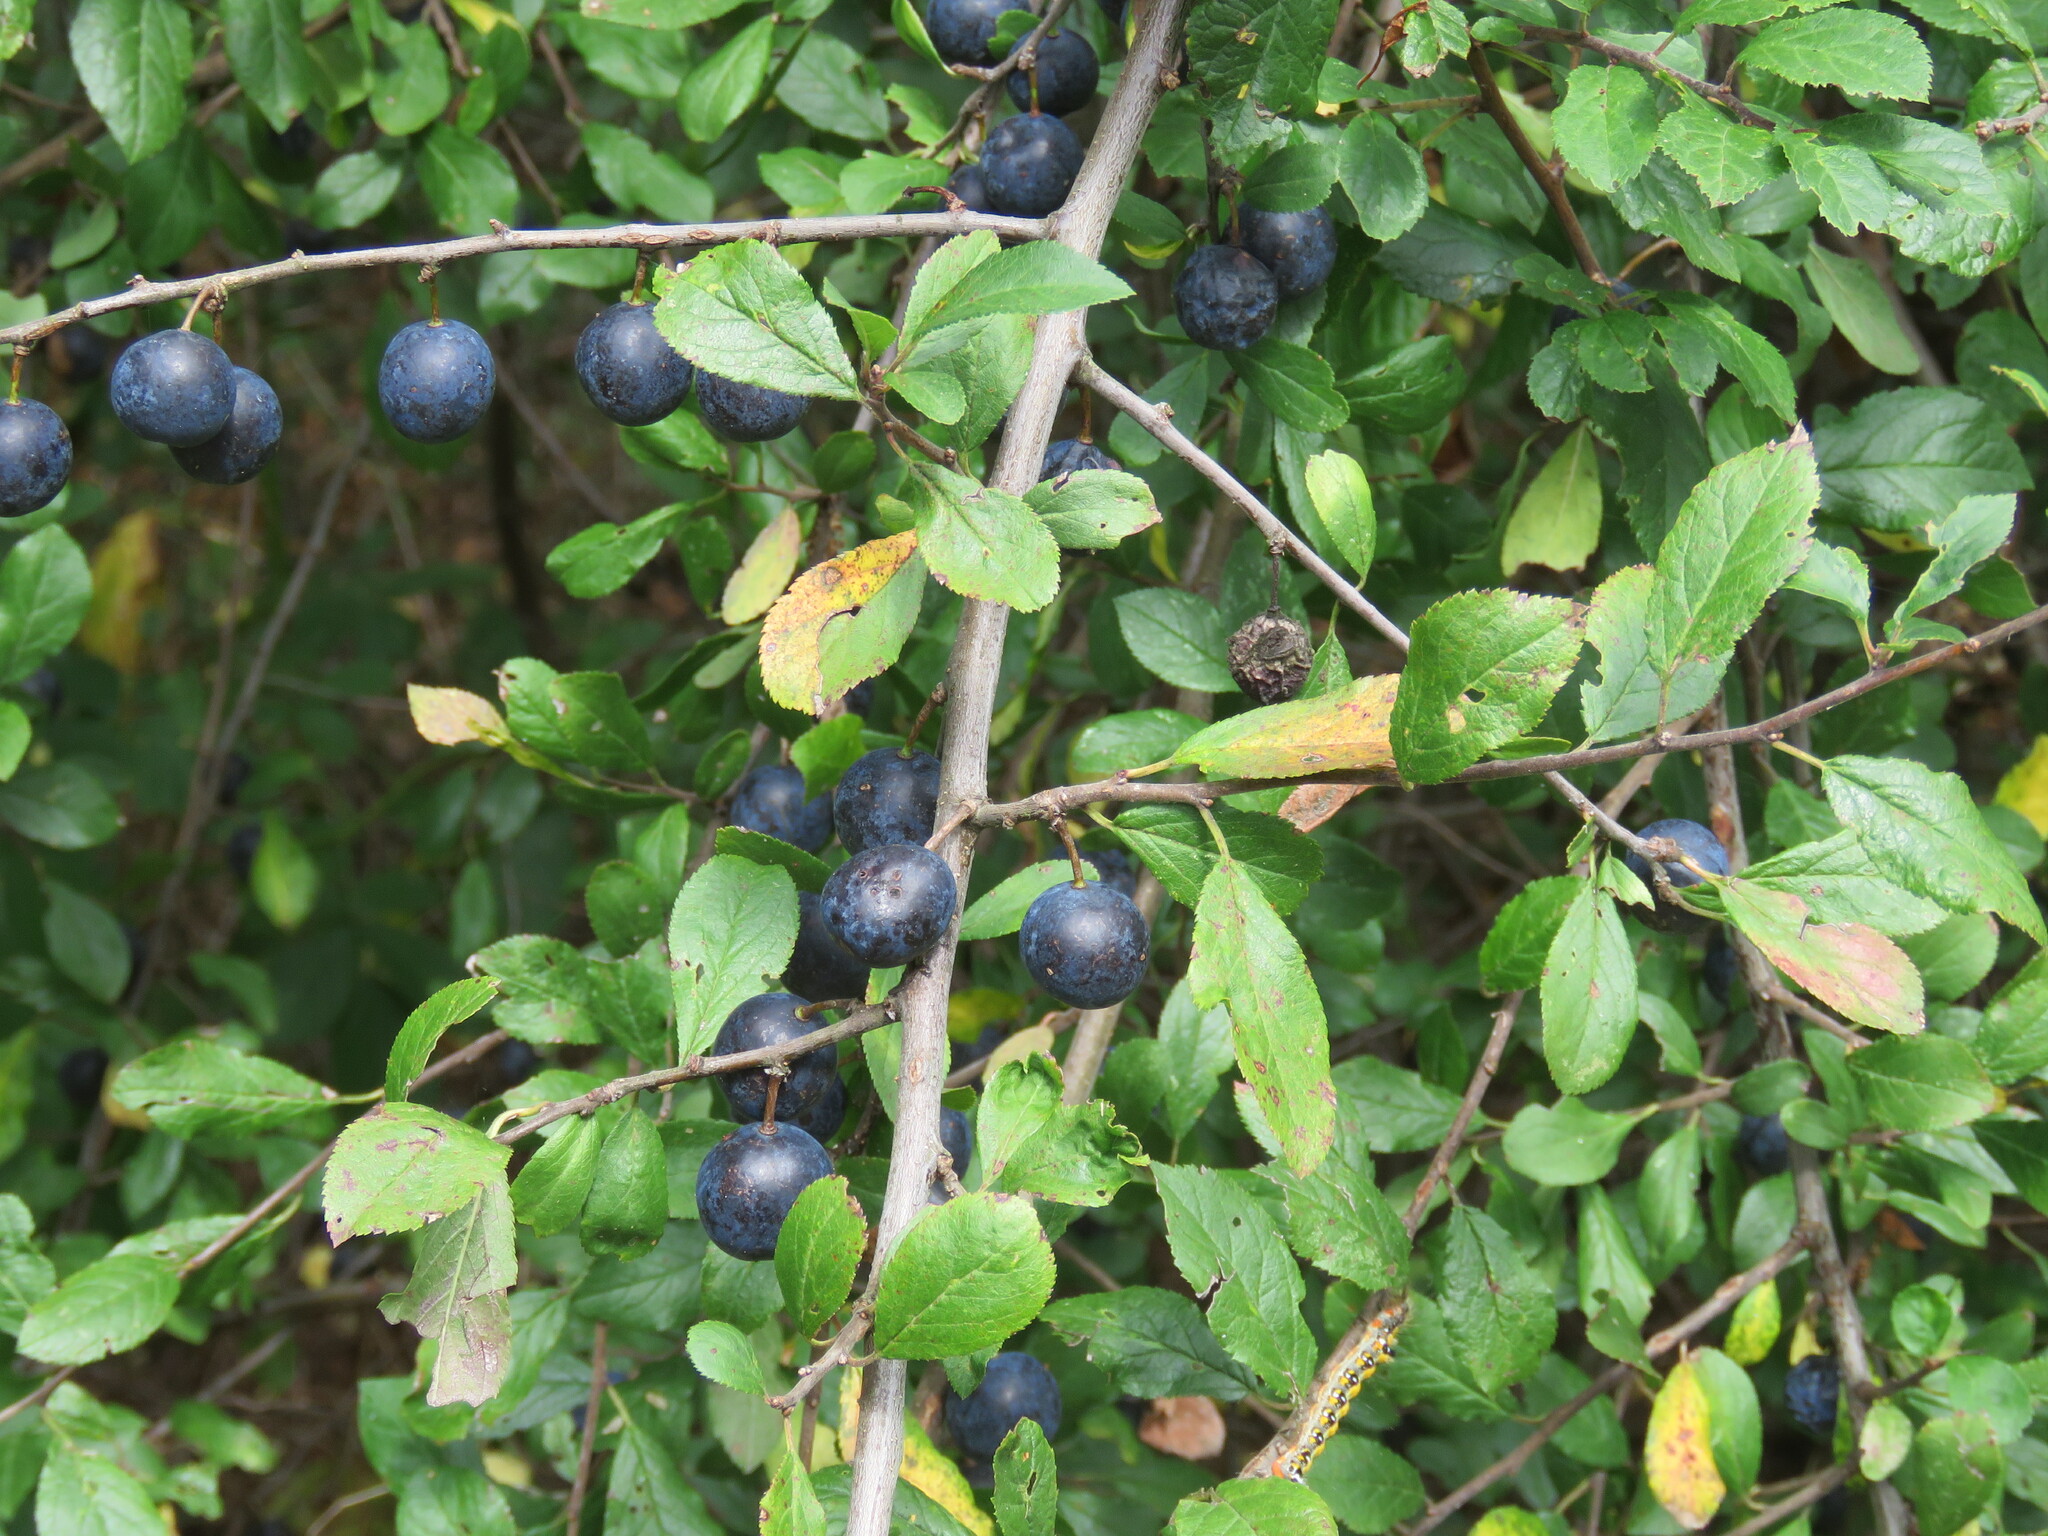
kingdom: Plantae
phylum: Tracheophyta
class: Magnoliopsida
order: Rosales
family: Rosaceae
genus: Prunus
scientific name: Prunus spinosa
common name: Blackthorn
